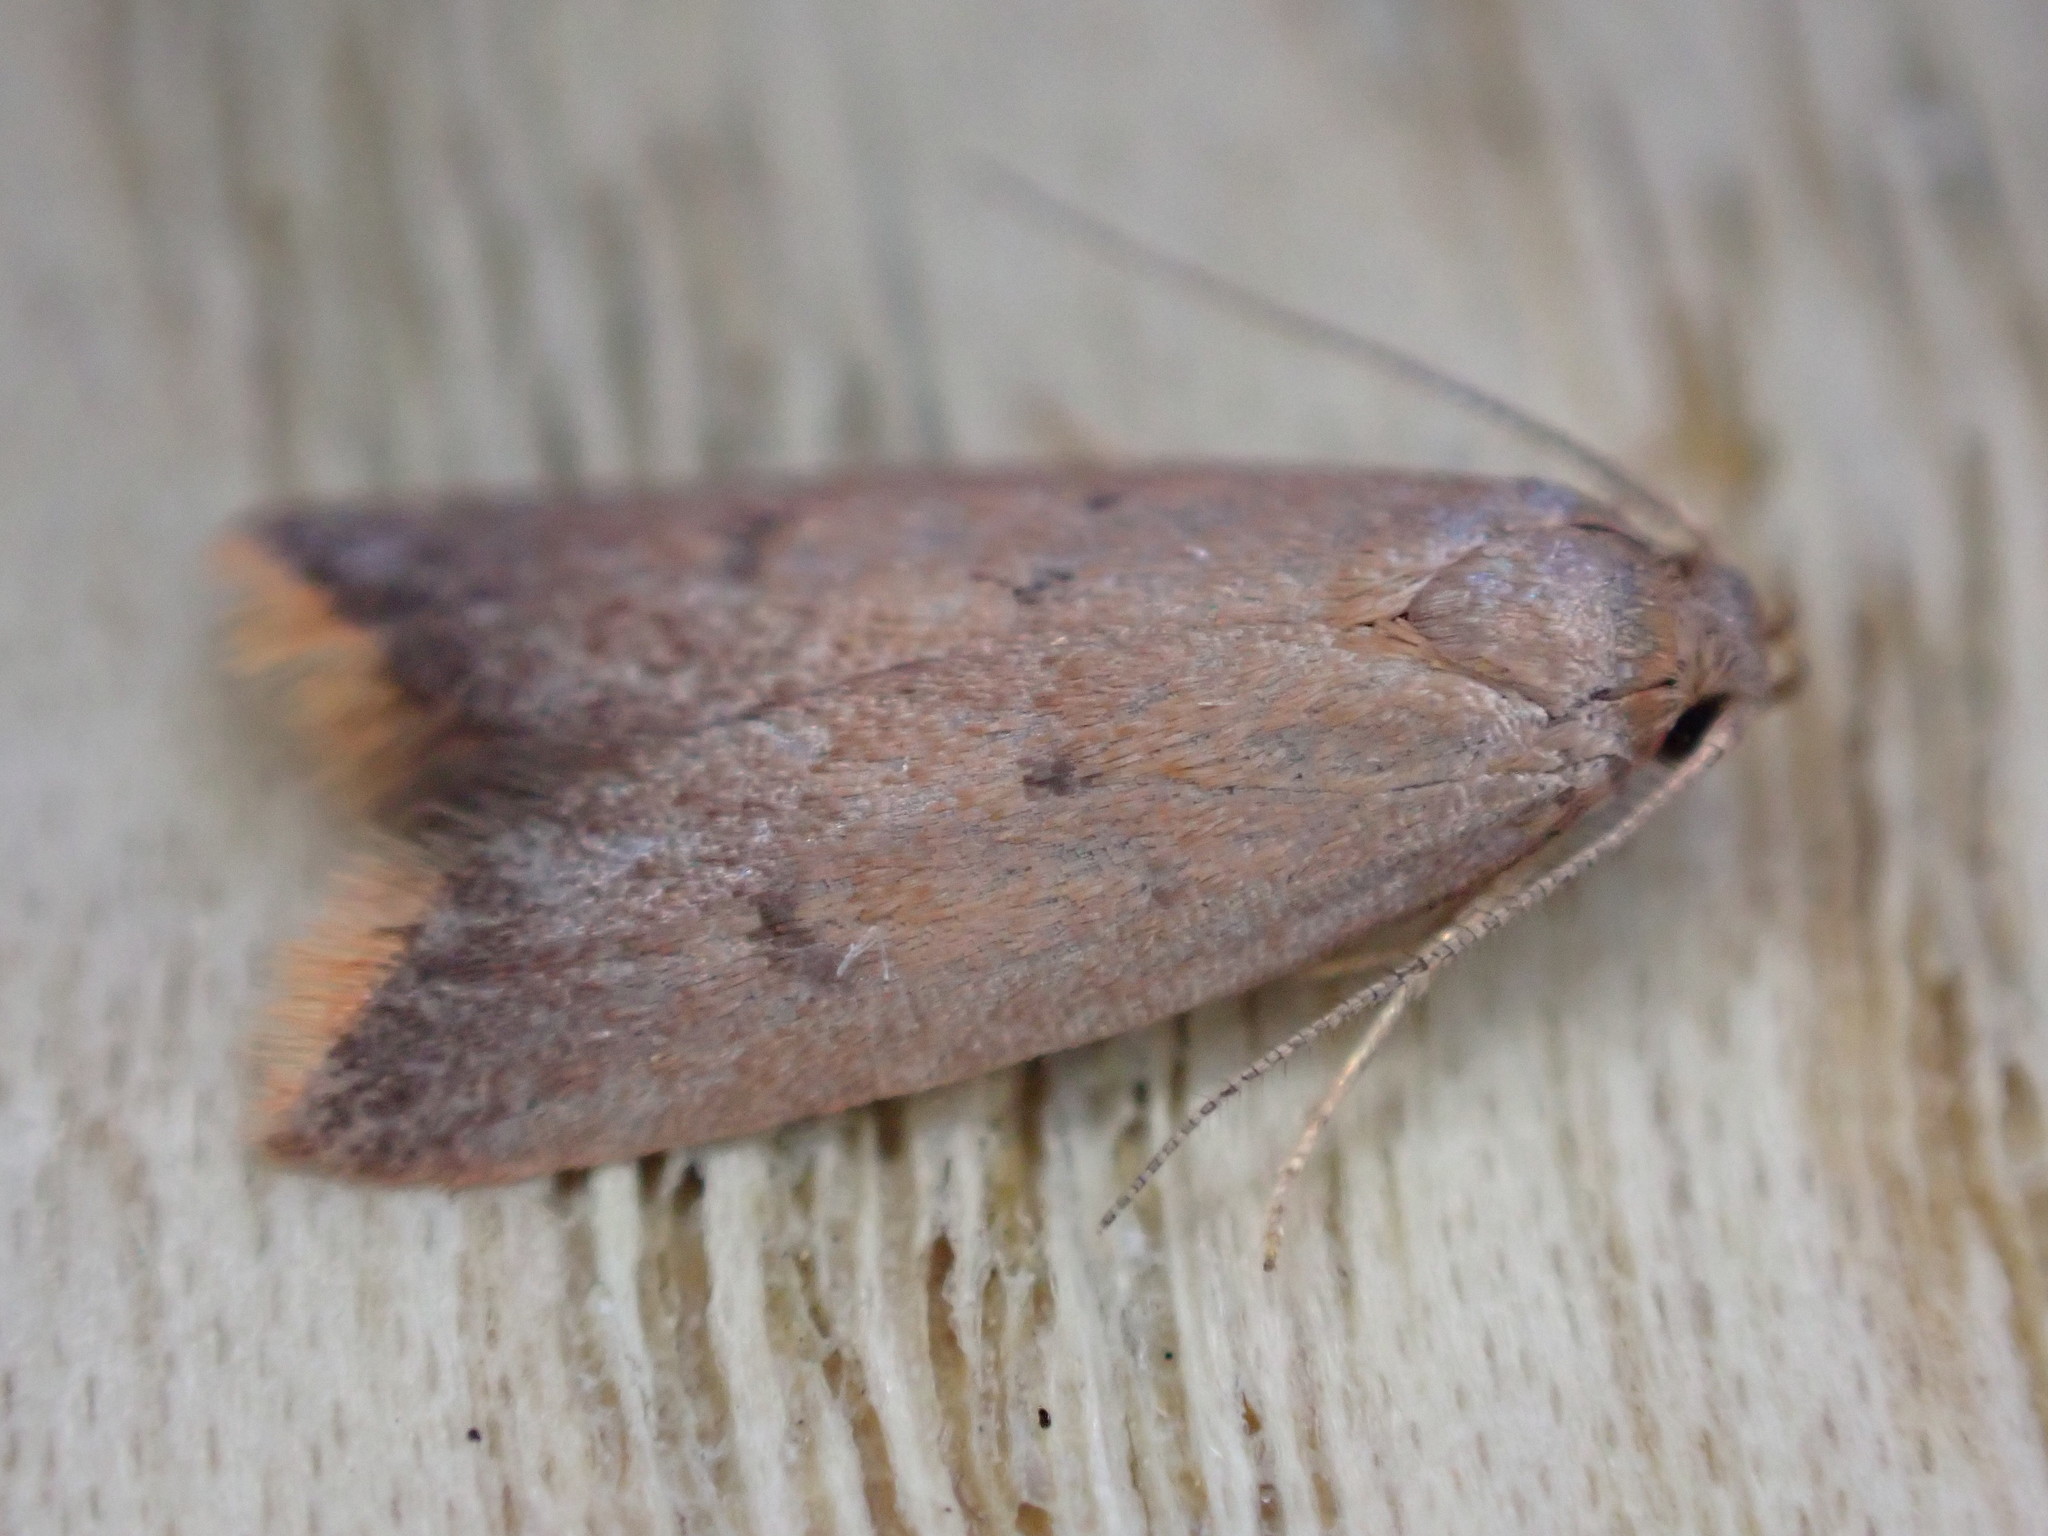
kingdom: Animalia
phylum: Arthropoda
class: Insecta
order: Lepidoptera
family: Oecophoridae
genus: Tachystola
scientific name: Tachystola acroxantha
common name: Ruddy streak
